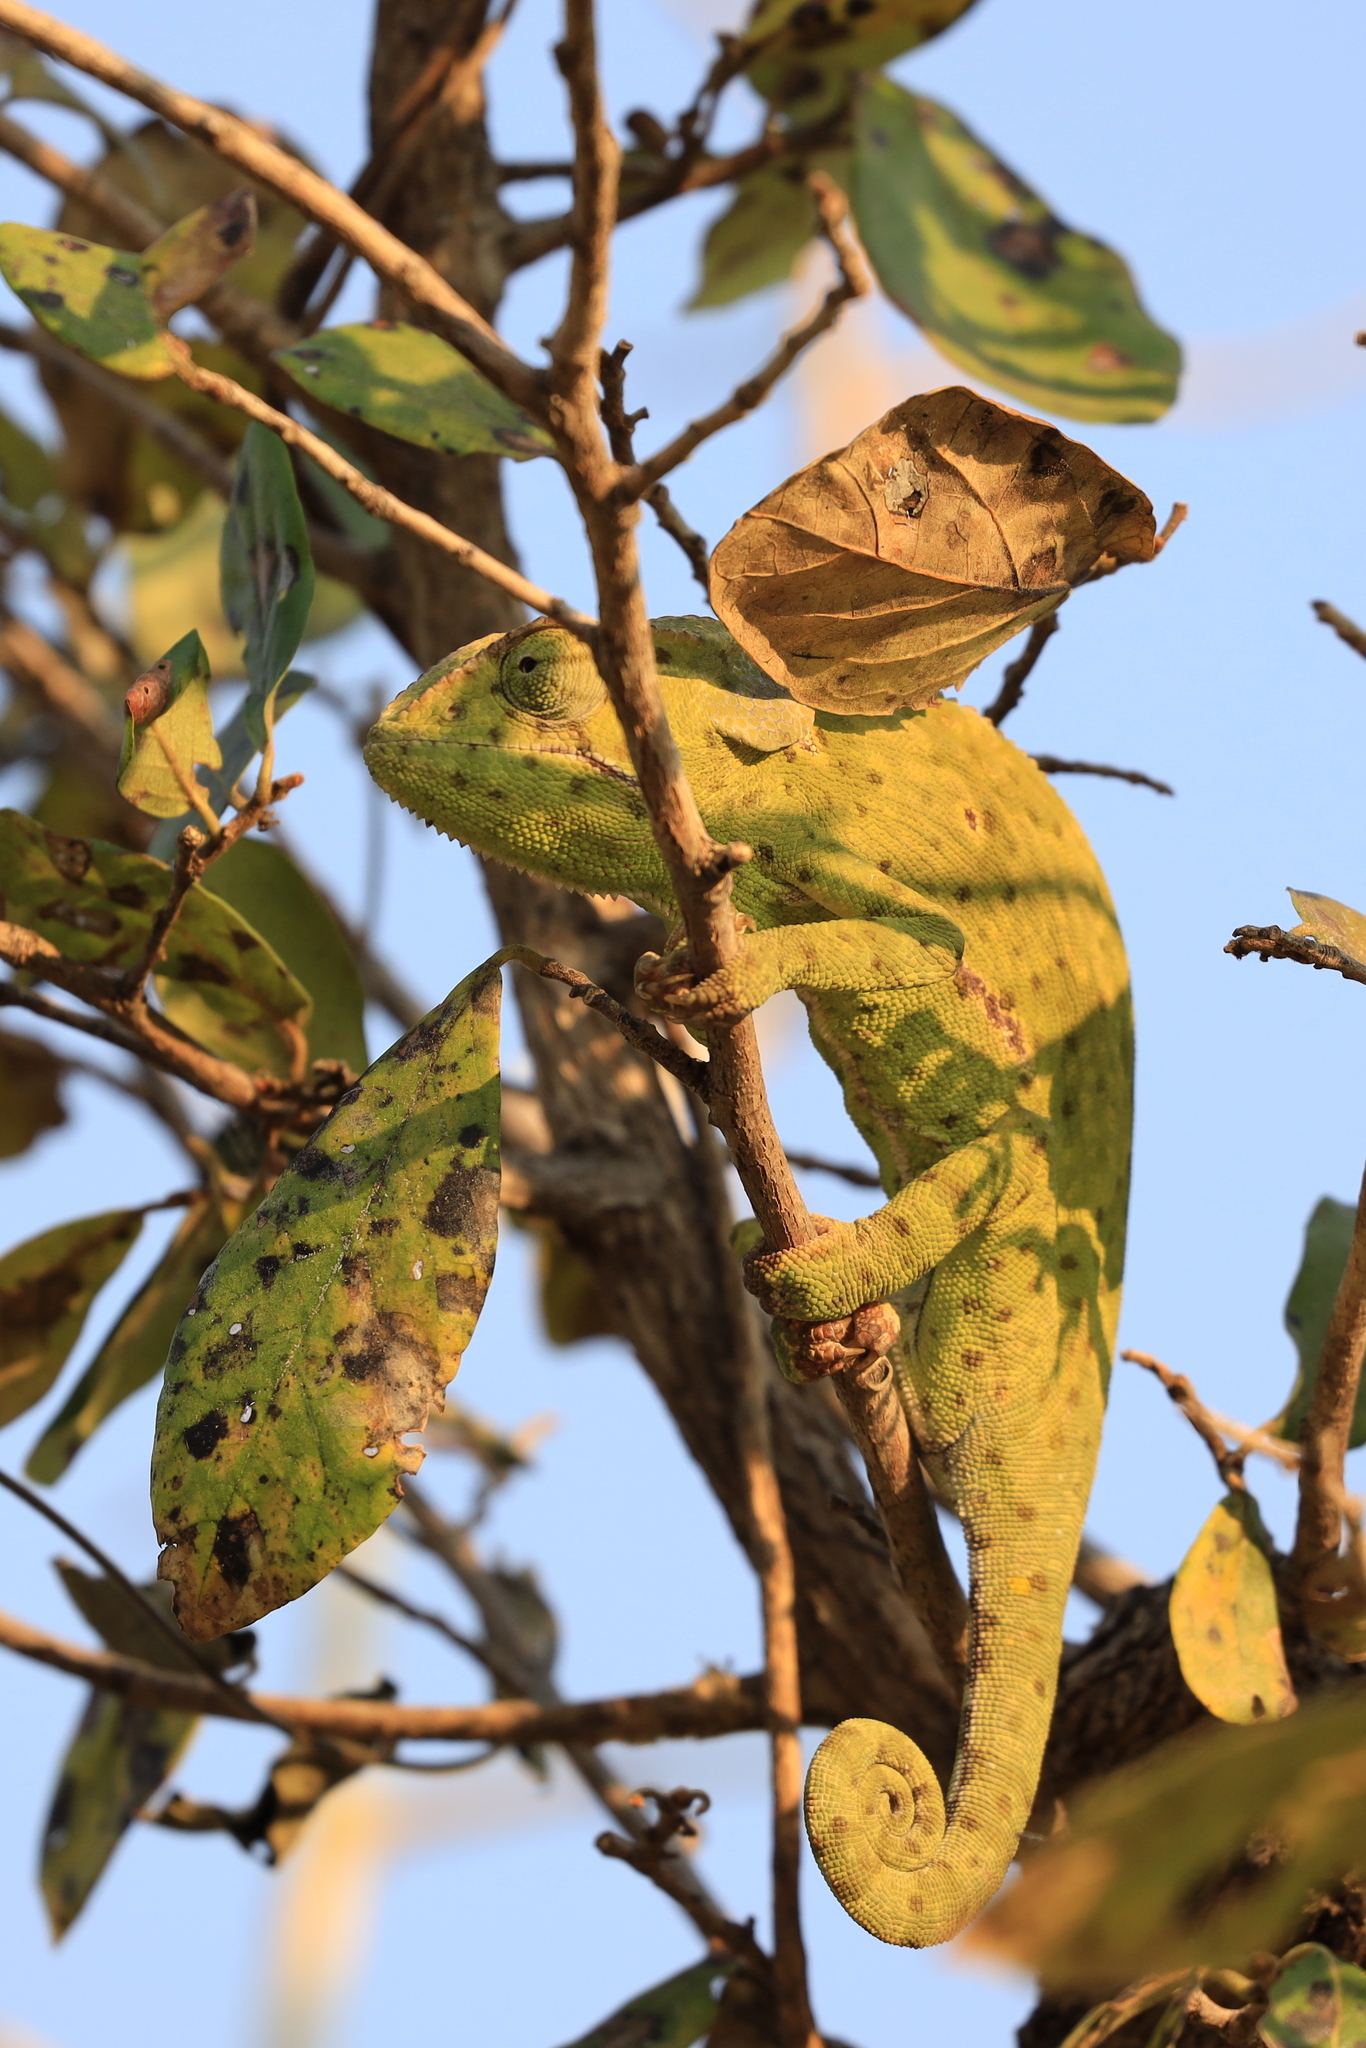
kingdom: Animalia
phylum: Chordata
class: Squamata
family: Chamaeleonidae
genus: Chamaeleo
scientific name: Chamaeleo dilepis
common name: Flapneck chameleon
